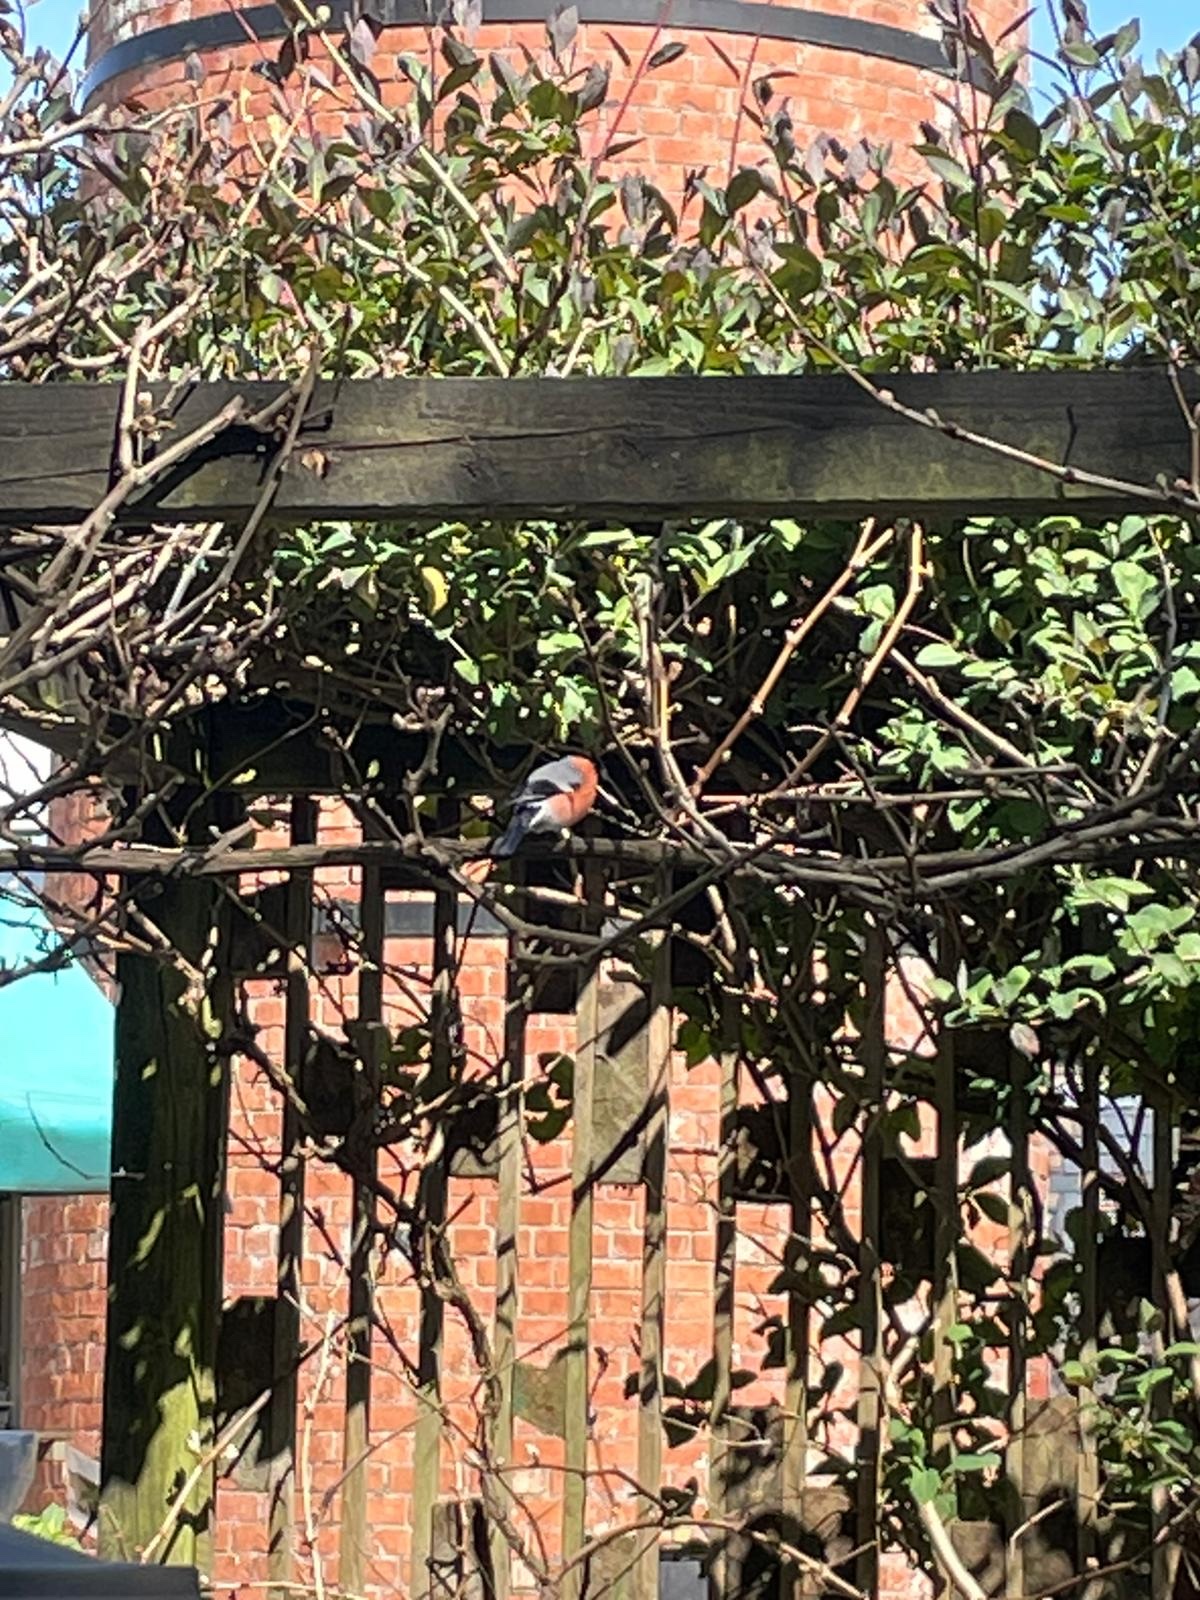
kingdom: Animalia
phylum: Chordata
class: Aves
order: Passeriformes
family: Fringillidae
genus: Pyrrhula
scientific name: Pyrrhula pyrrhula
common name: Eurasian bullfinch
